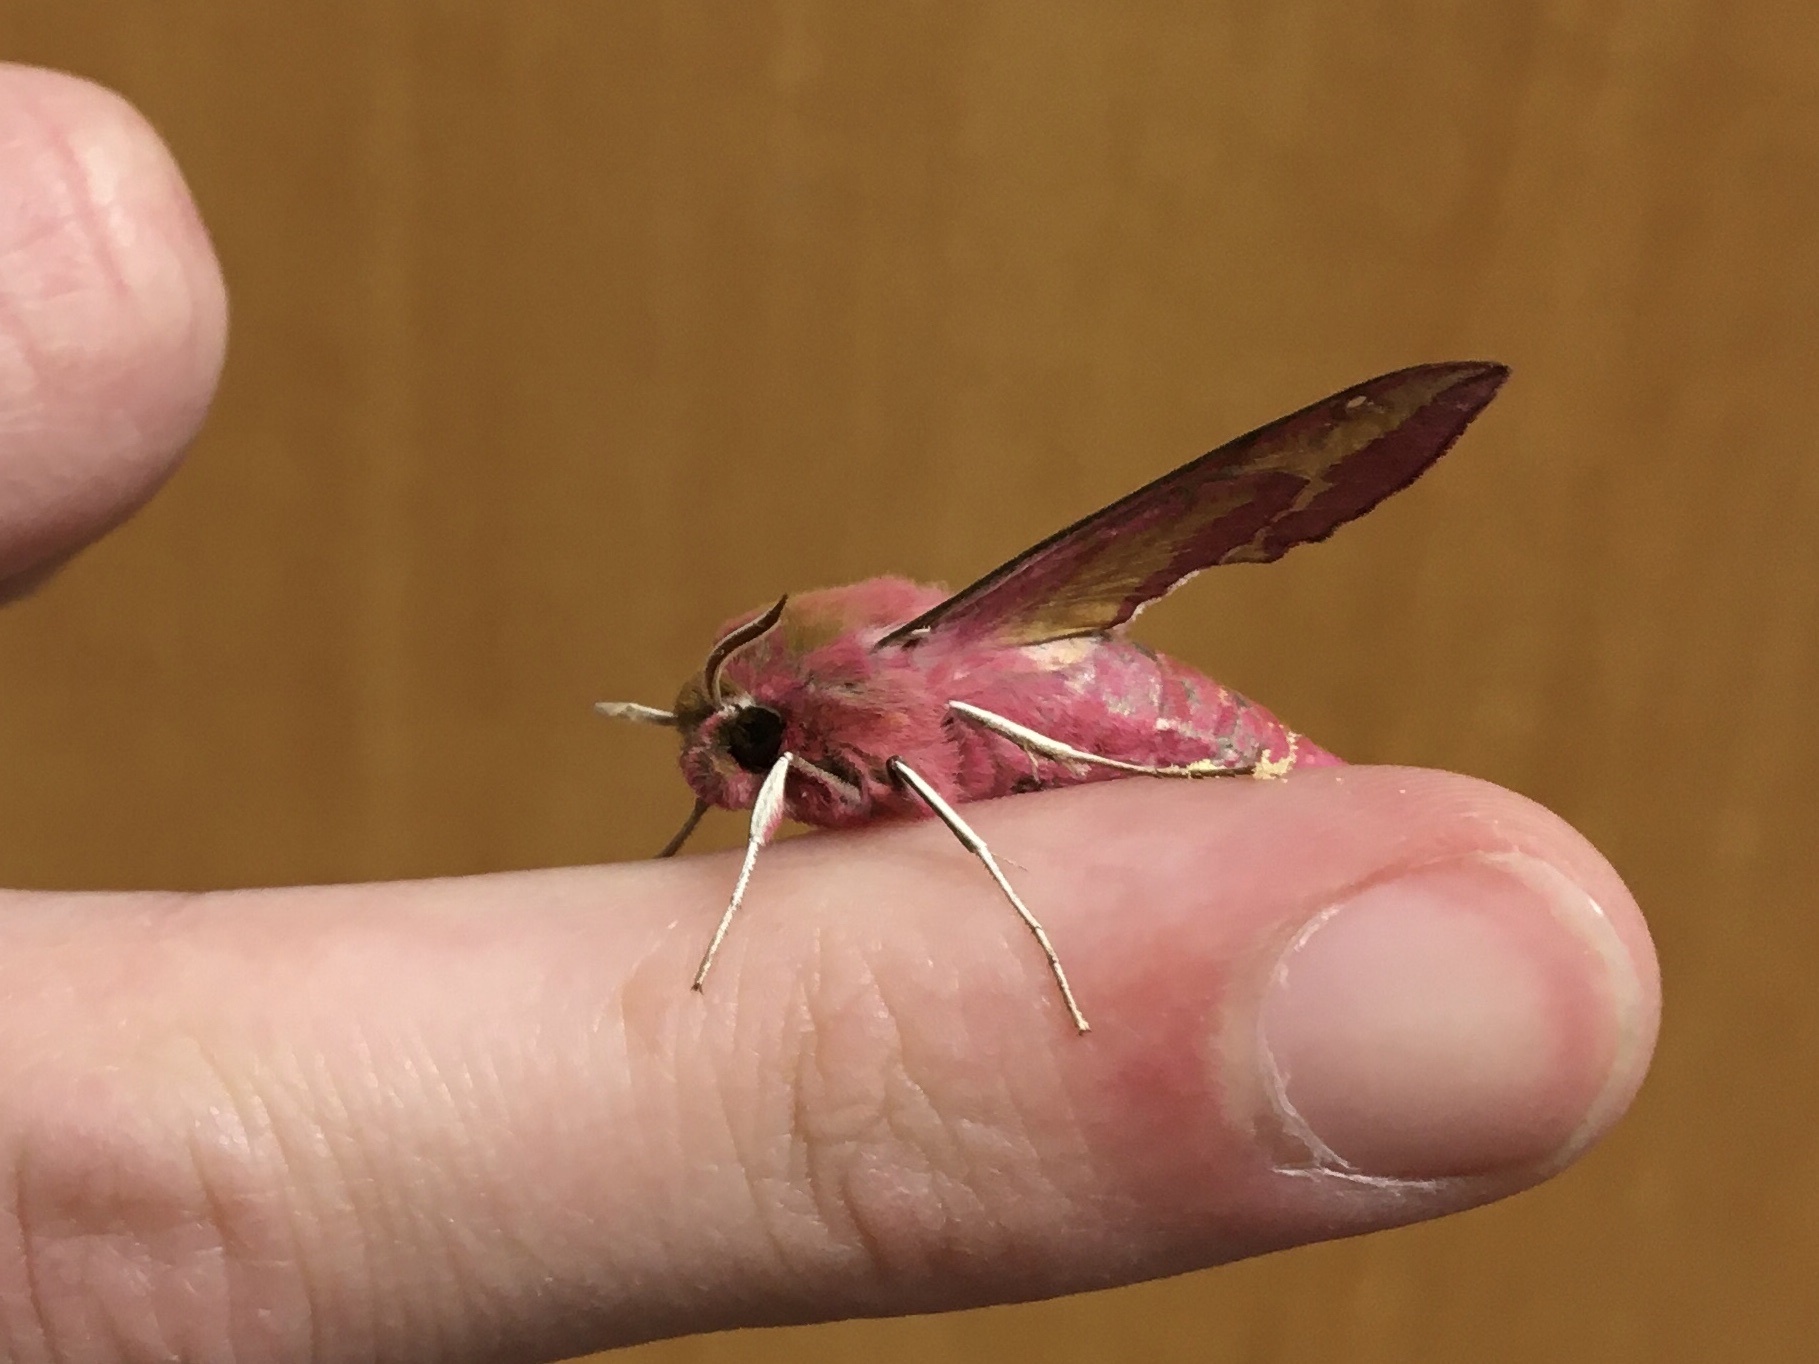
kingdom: Animalia
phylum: Arthropoda
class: Insecta
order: Lepidoptera
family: Sphingidae
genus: Deilephila
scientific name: Deilephila porcellus
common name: Small elephant hawk-moth
